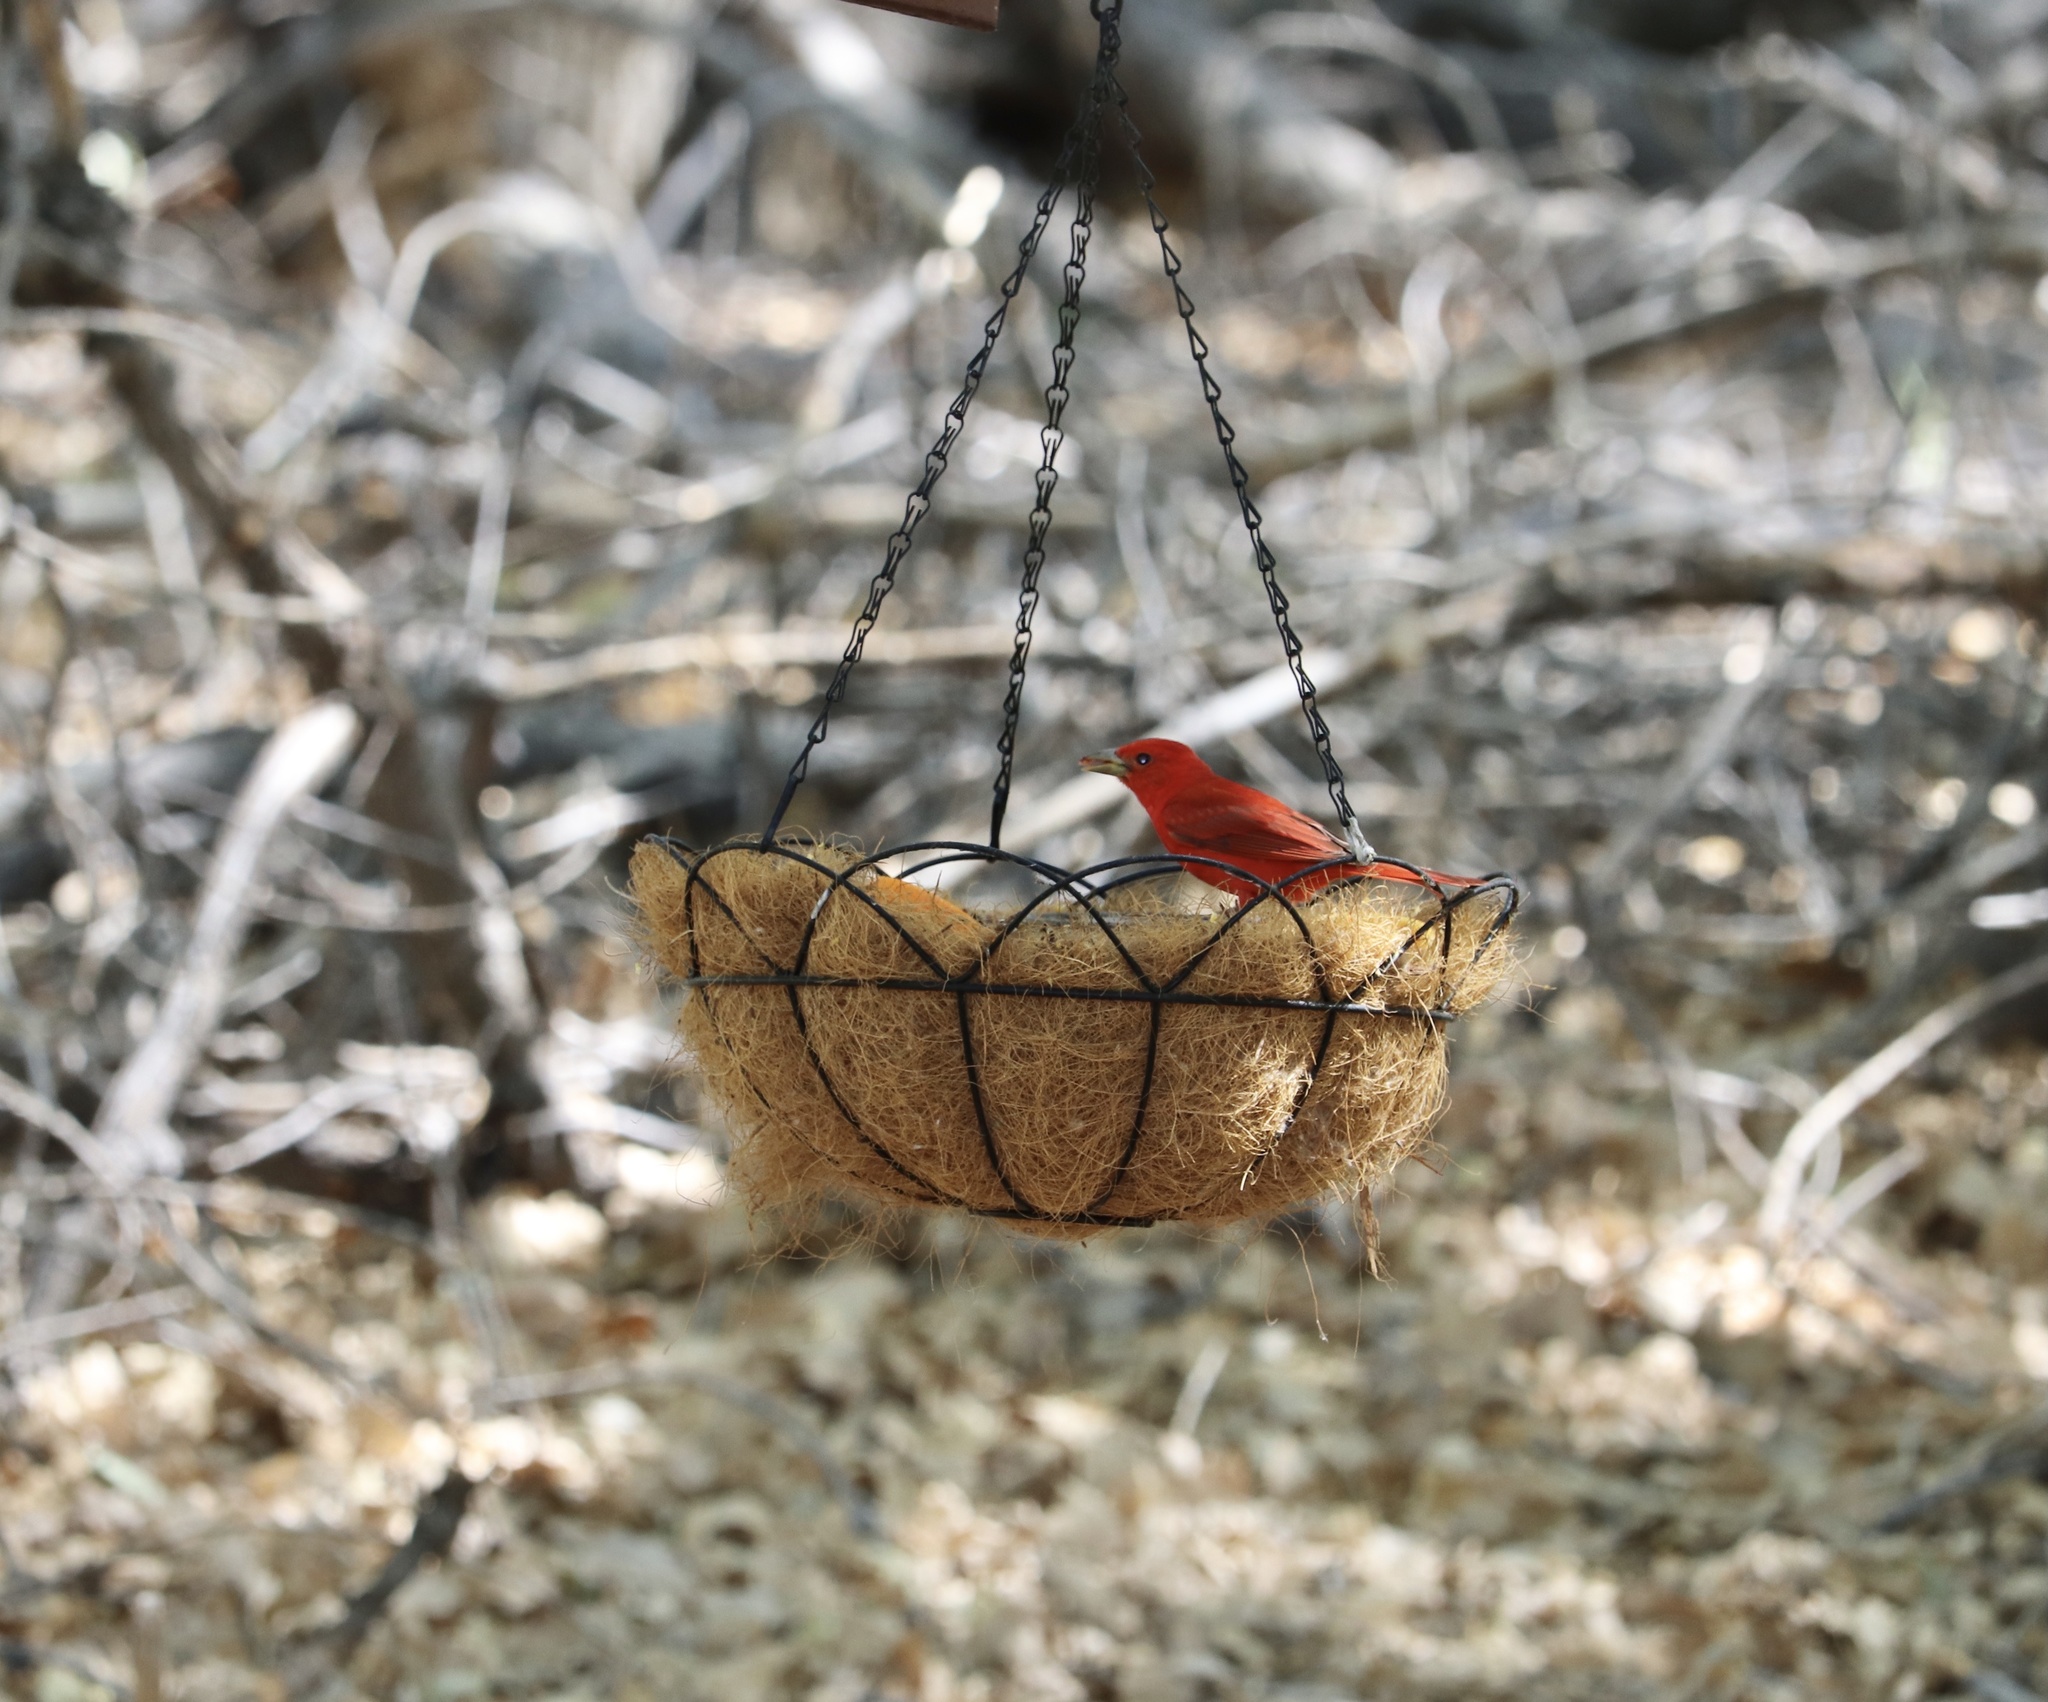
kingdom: Animalia
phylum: Chordata
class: Aves
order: Passeriformes
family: Cardinalidae
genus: Piranga
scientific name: Piranga rubra
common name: Summer tanager
